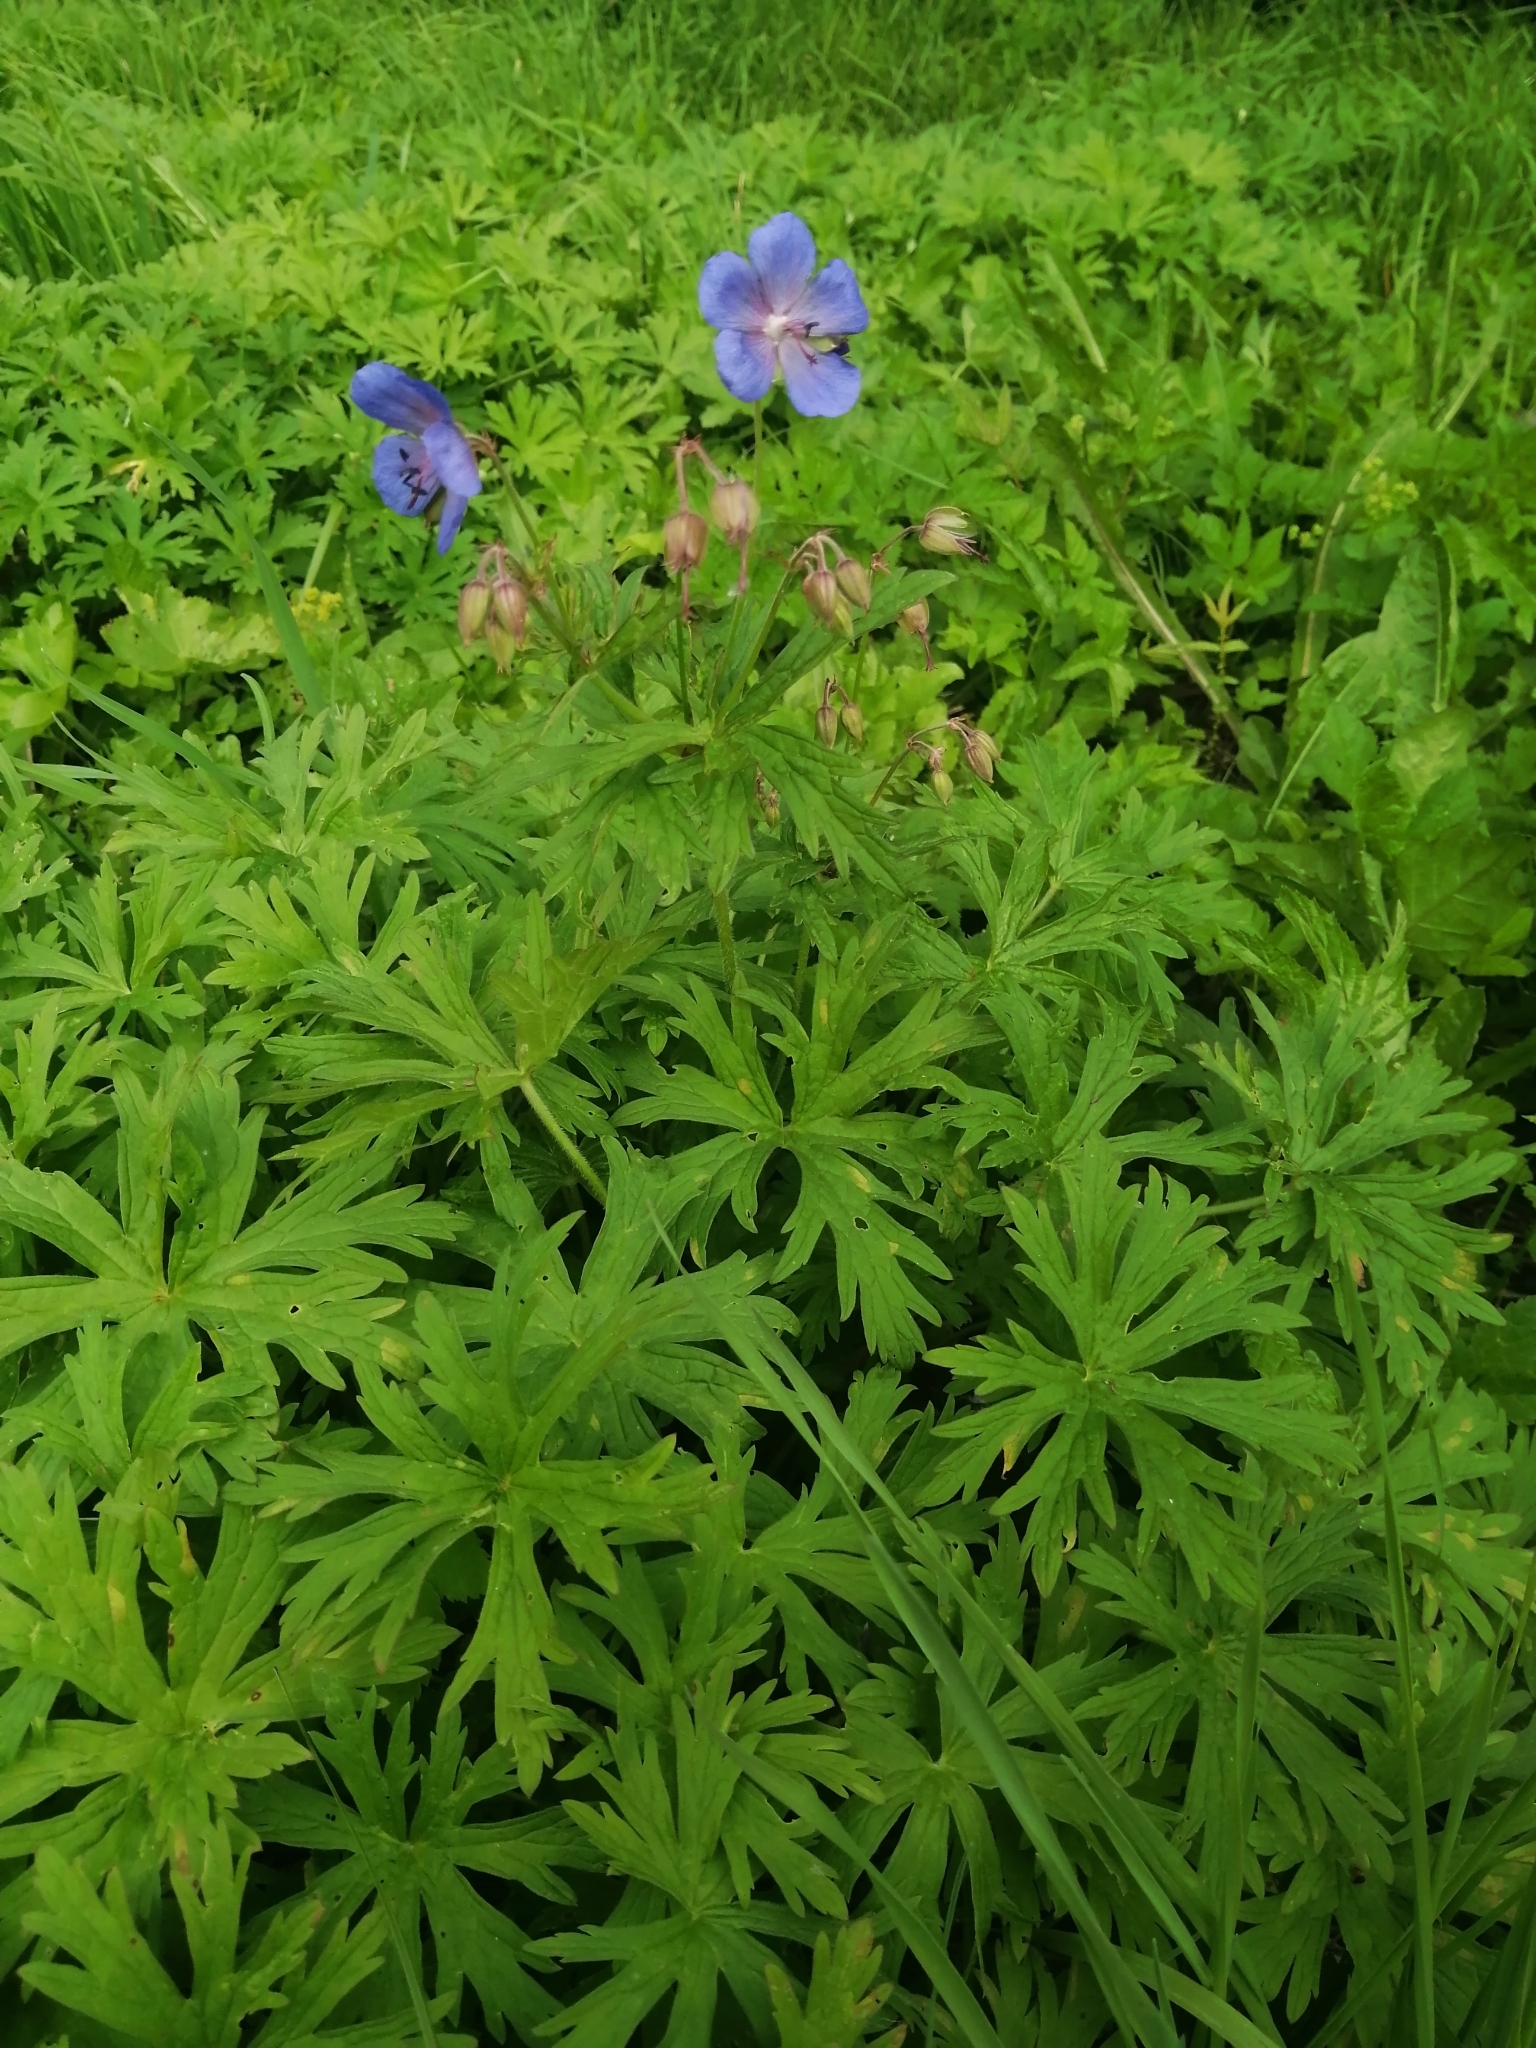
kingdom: Plantae
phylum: Tracheophyta
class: Magnoliopsida
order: Geraniales
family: Geraniaceae
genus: Geranium
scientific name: Geranium pratense
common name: Meadow crane's-bill
